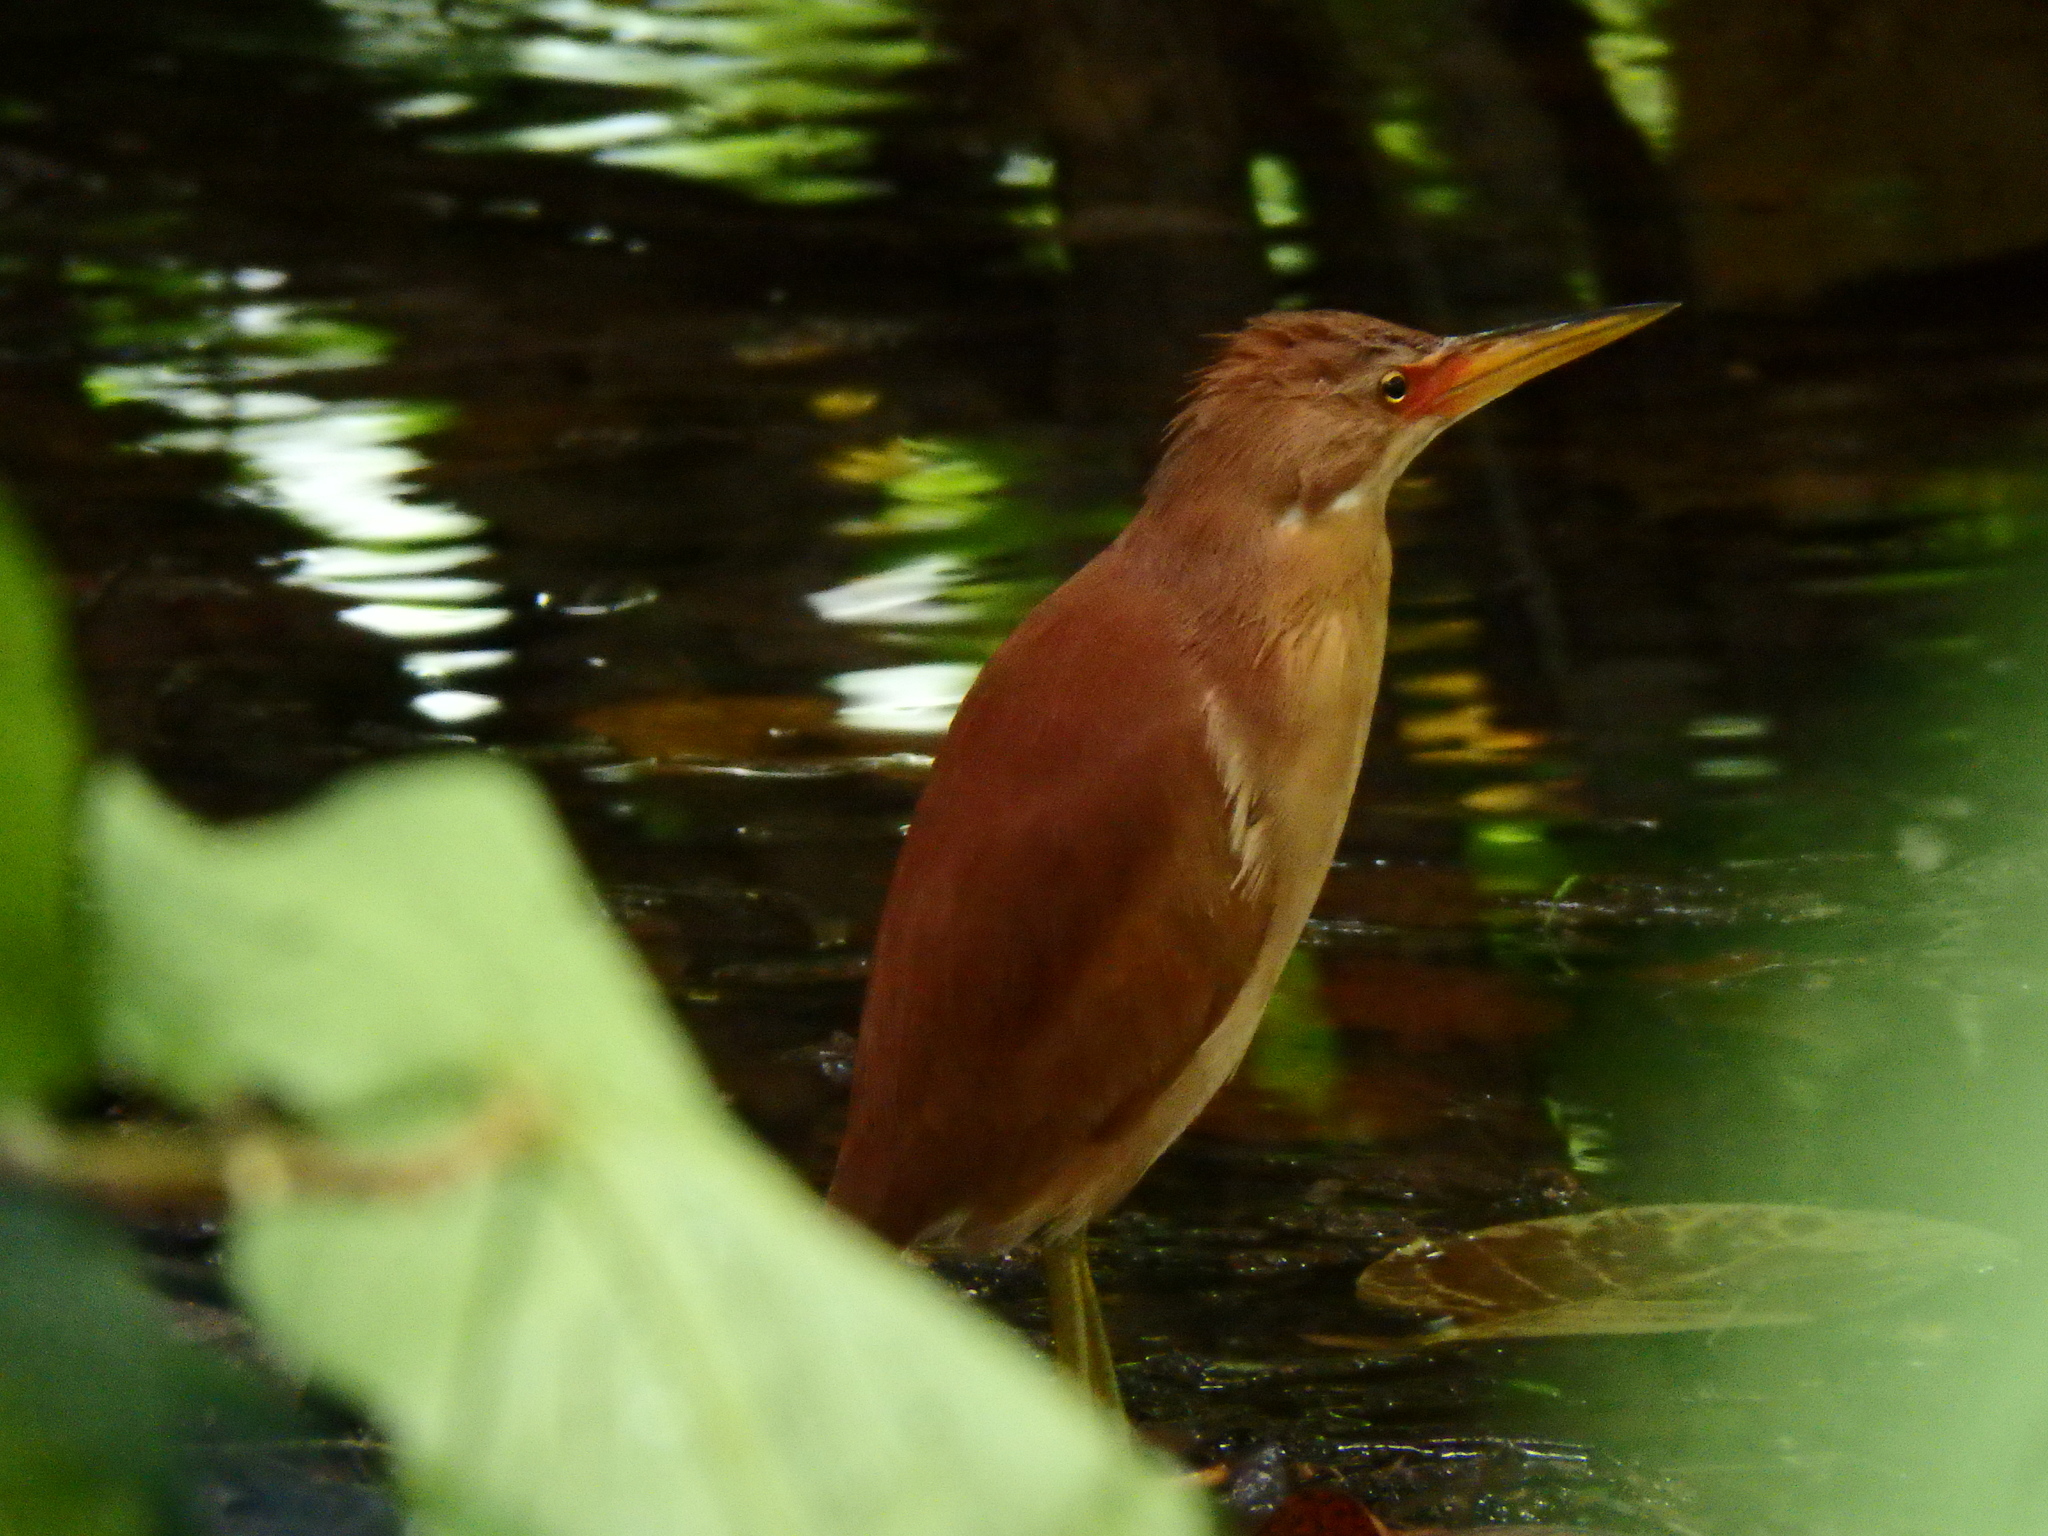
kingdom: Animalia
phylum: Chordata
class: Aves
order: Pelecaniformes
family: Ardeidae
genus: Ixobrychus
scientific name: Ixobrychus cinnamomeus
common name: Cinnamon bittern
